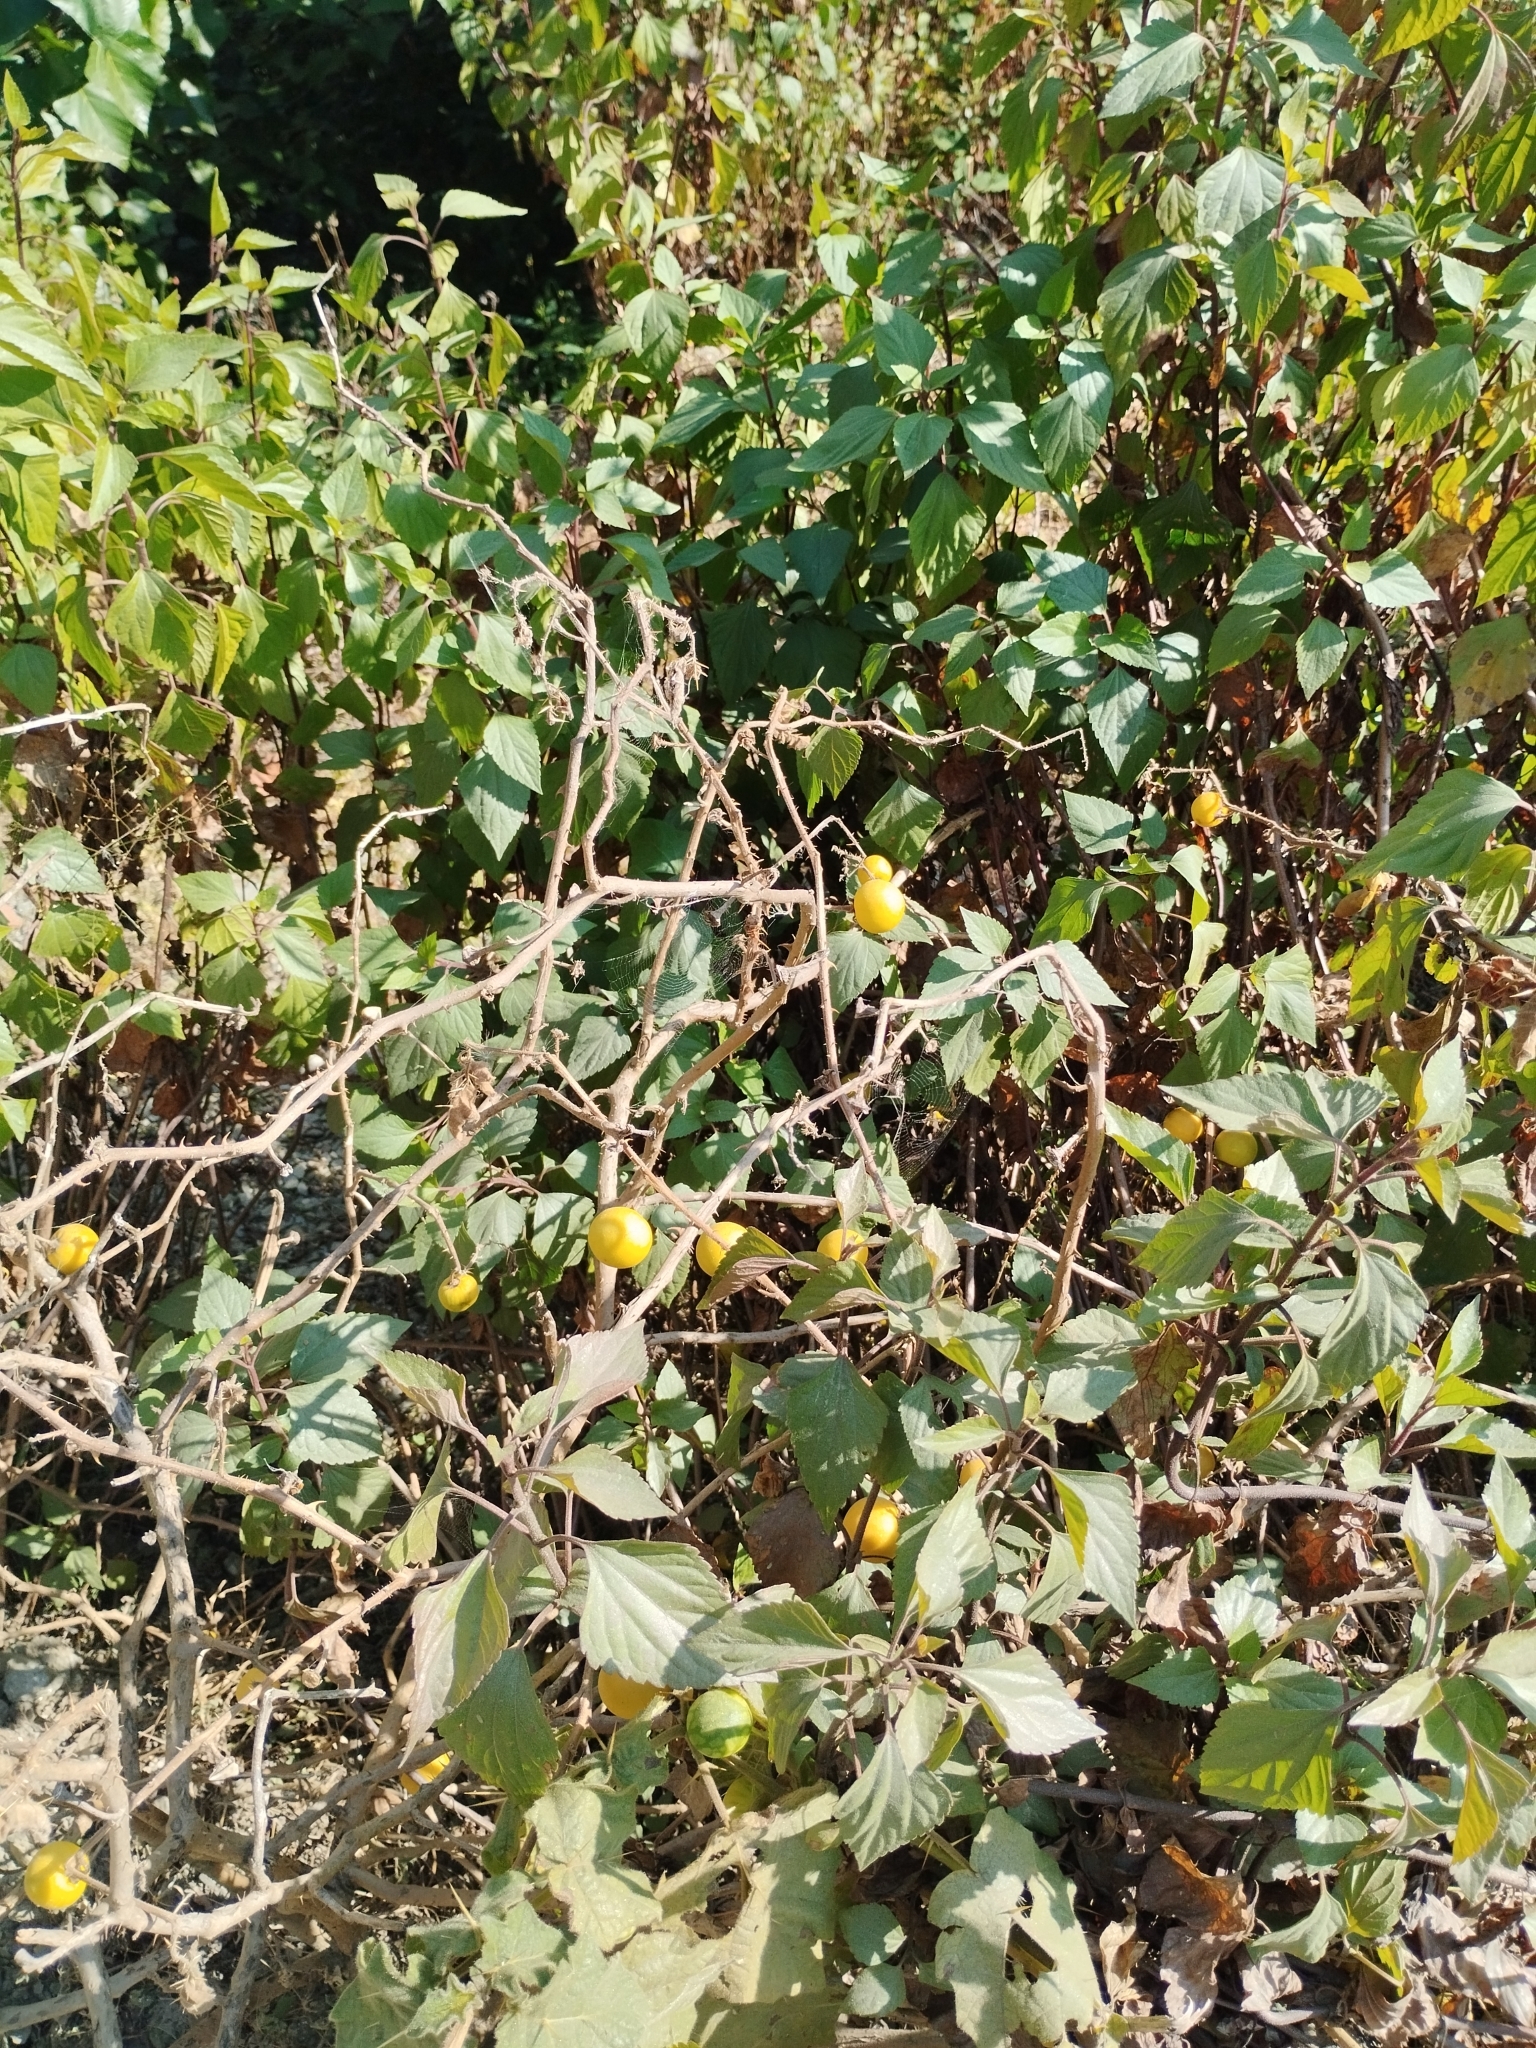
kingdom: Plantae
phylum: Tracheophyta
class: Magnoliopsida
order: Solanales
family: Solanaceae
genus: Solanum
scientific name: Solanum viarum
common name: Tropical soda apple
